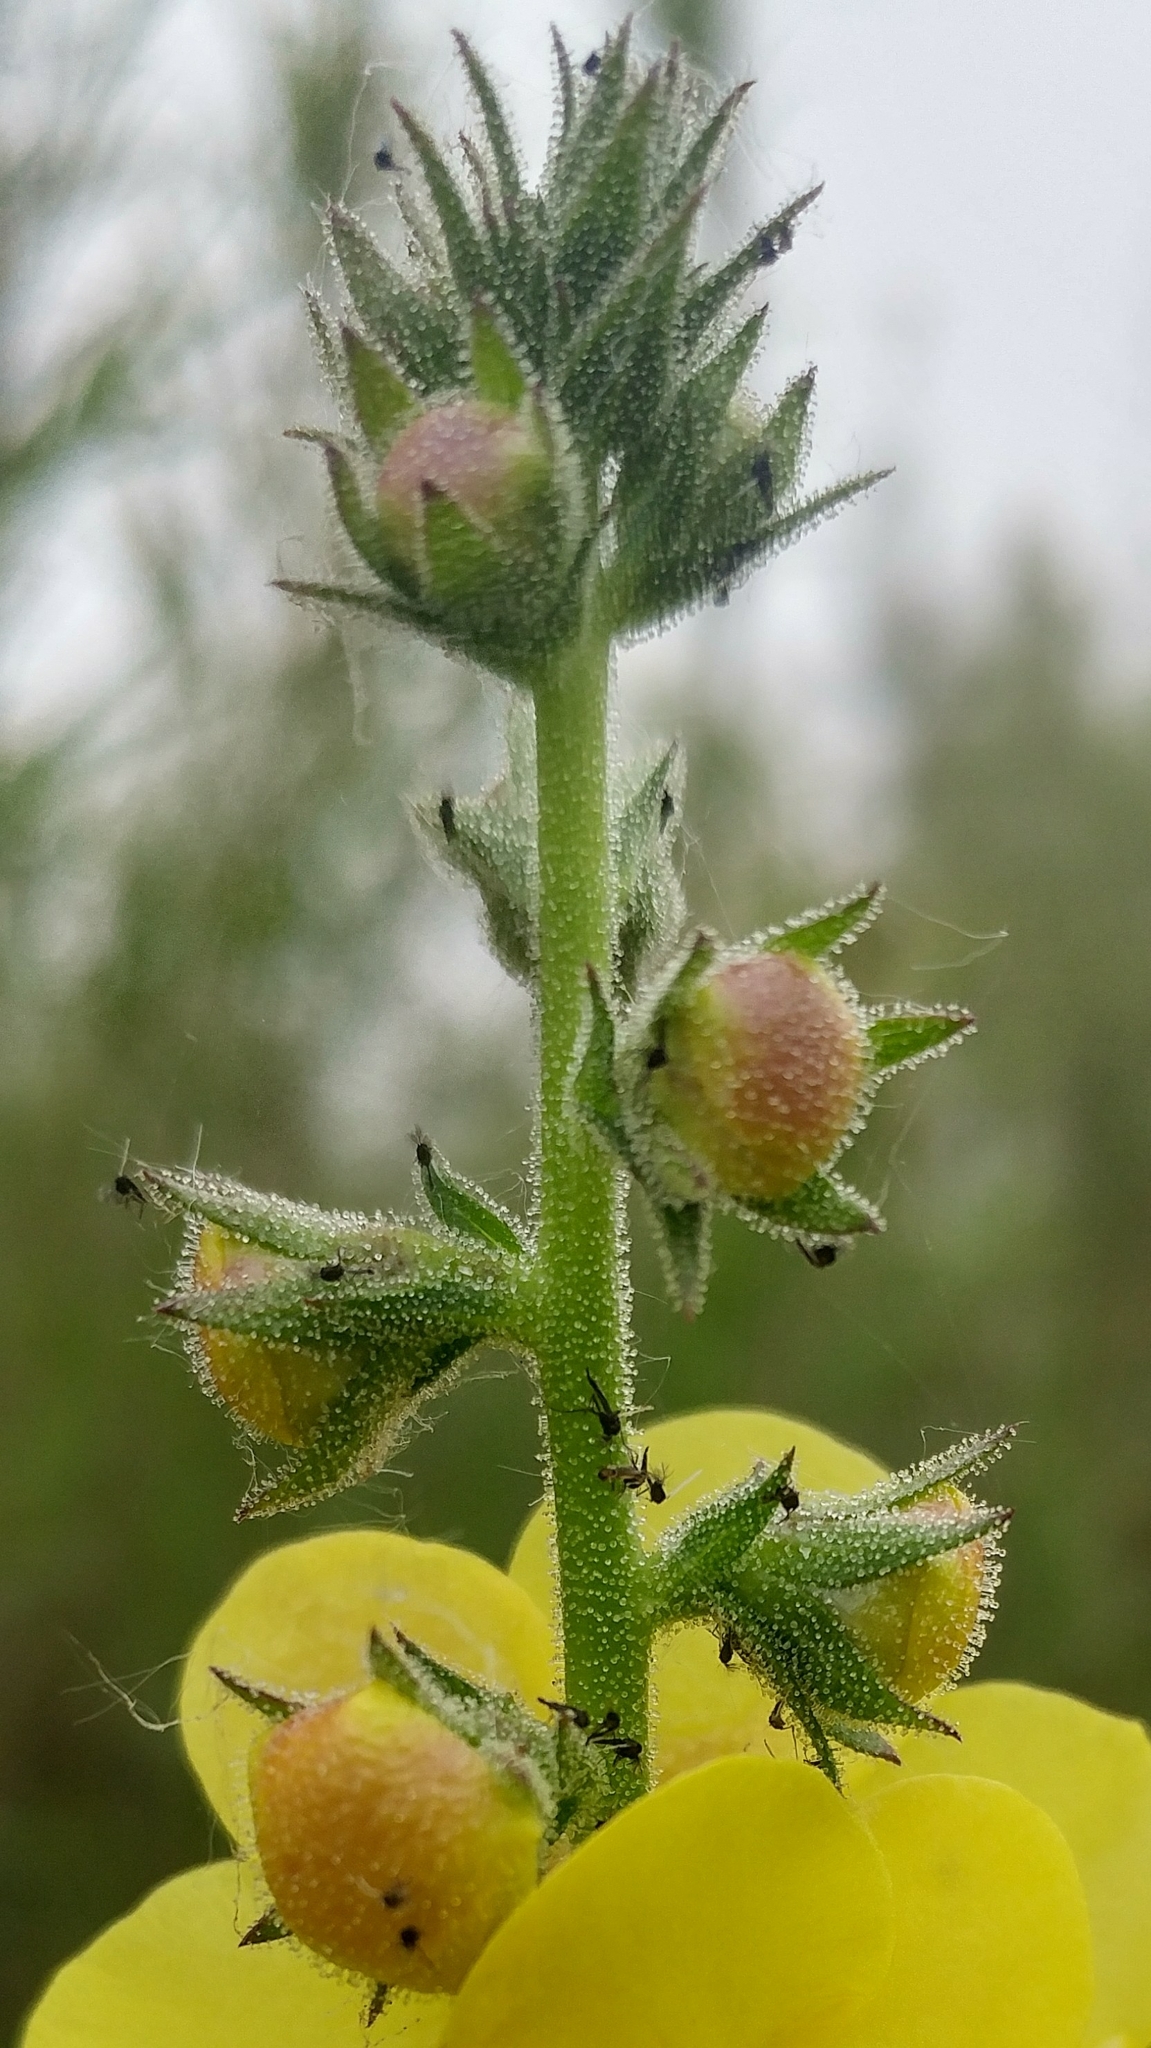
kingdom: Plantae
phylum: Tracheophyta
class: Magnoliopsida
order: Lamiales
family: Scrophulariaceae
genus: Verbascum
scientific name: Verbascum virgatum
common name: Twiggy mullein
